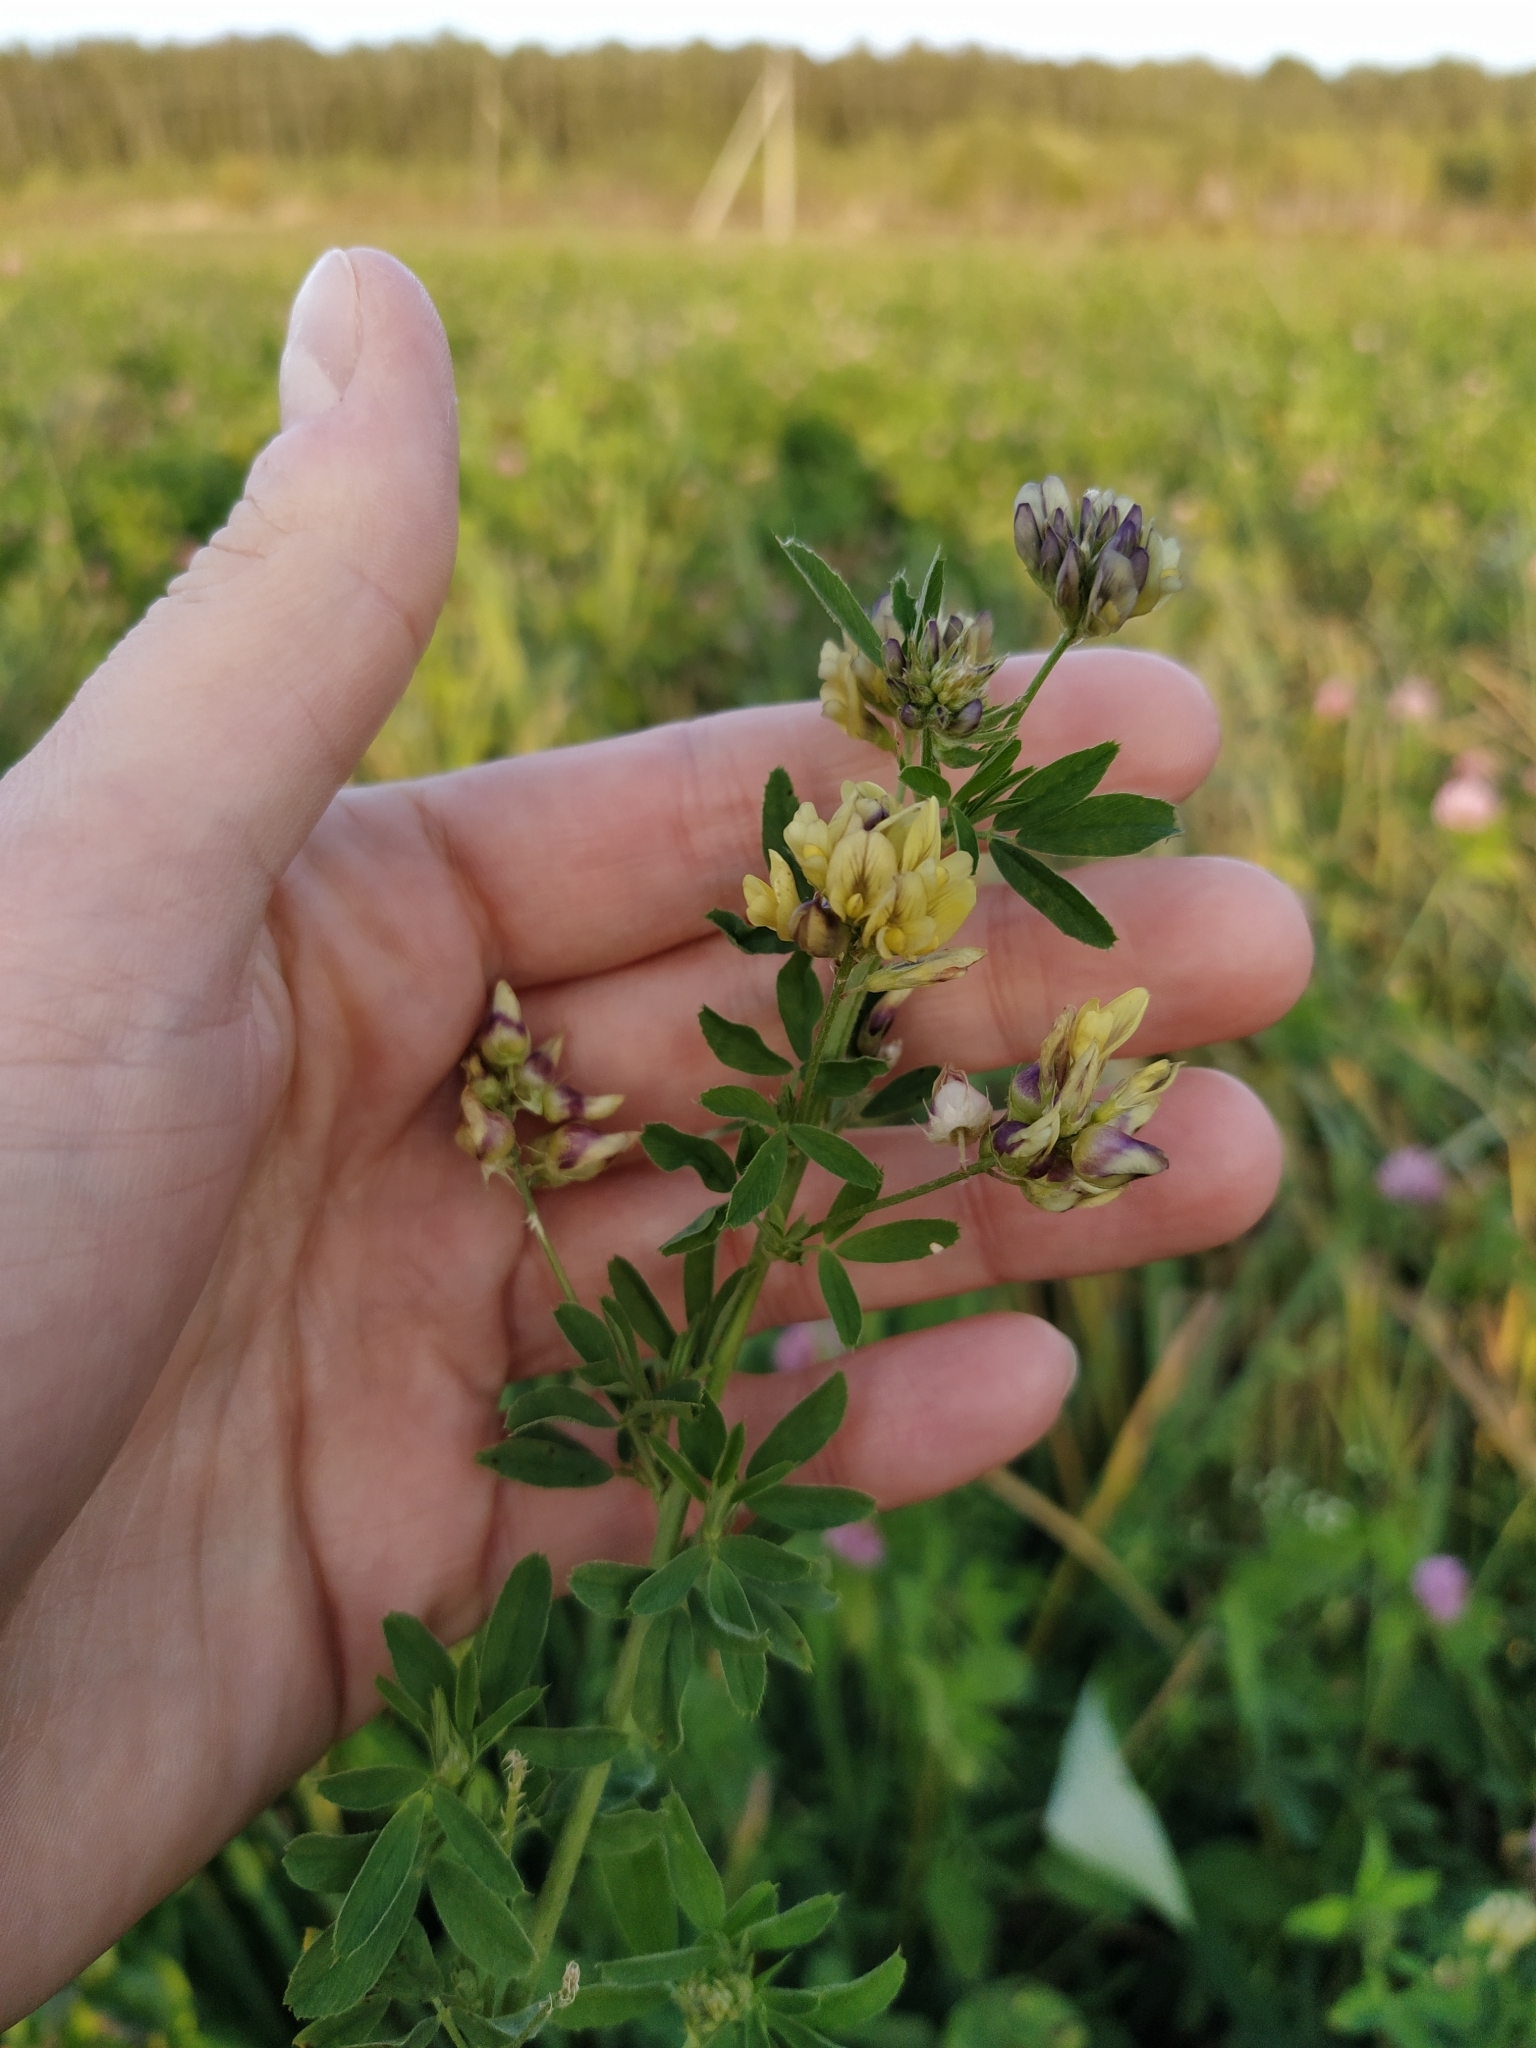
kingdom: Plantae
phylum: Tracheophyta
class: Magnoliopsida
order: Fabales
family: Fabaceae
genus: Medicago
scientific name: Medicago varia
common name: Sand lucerne
